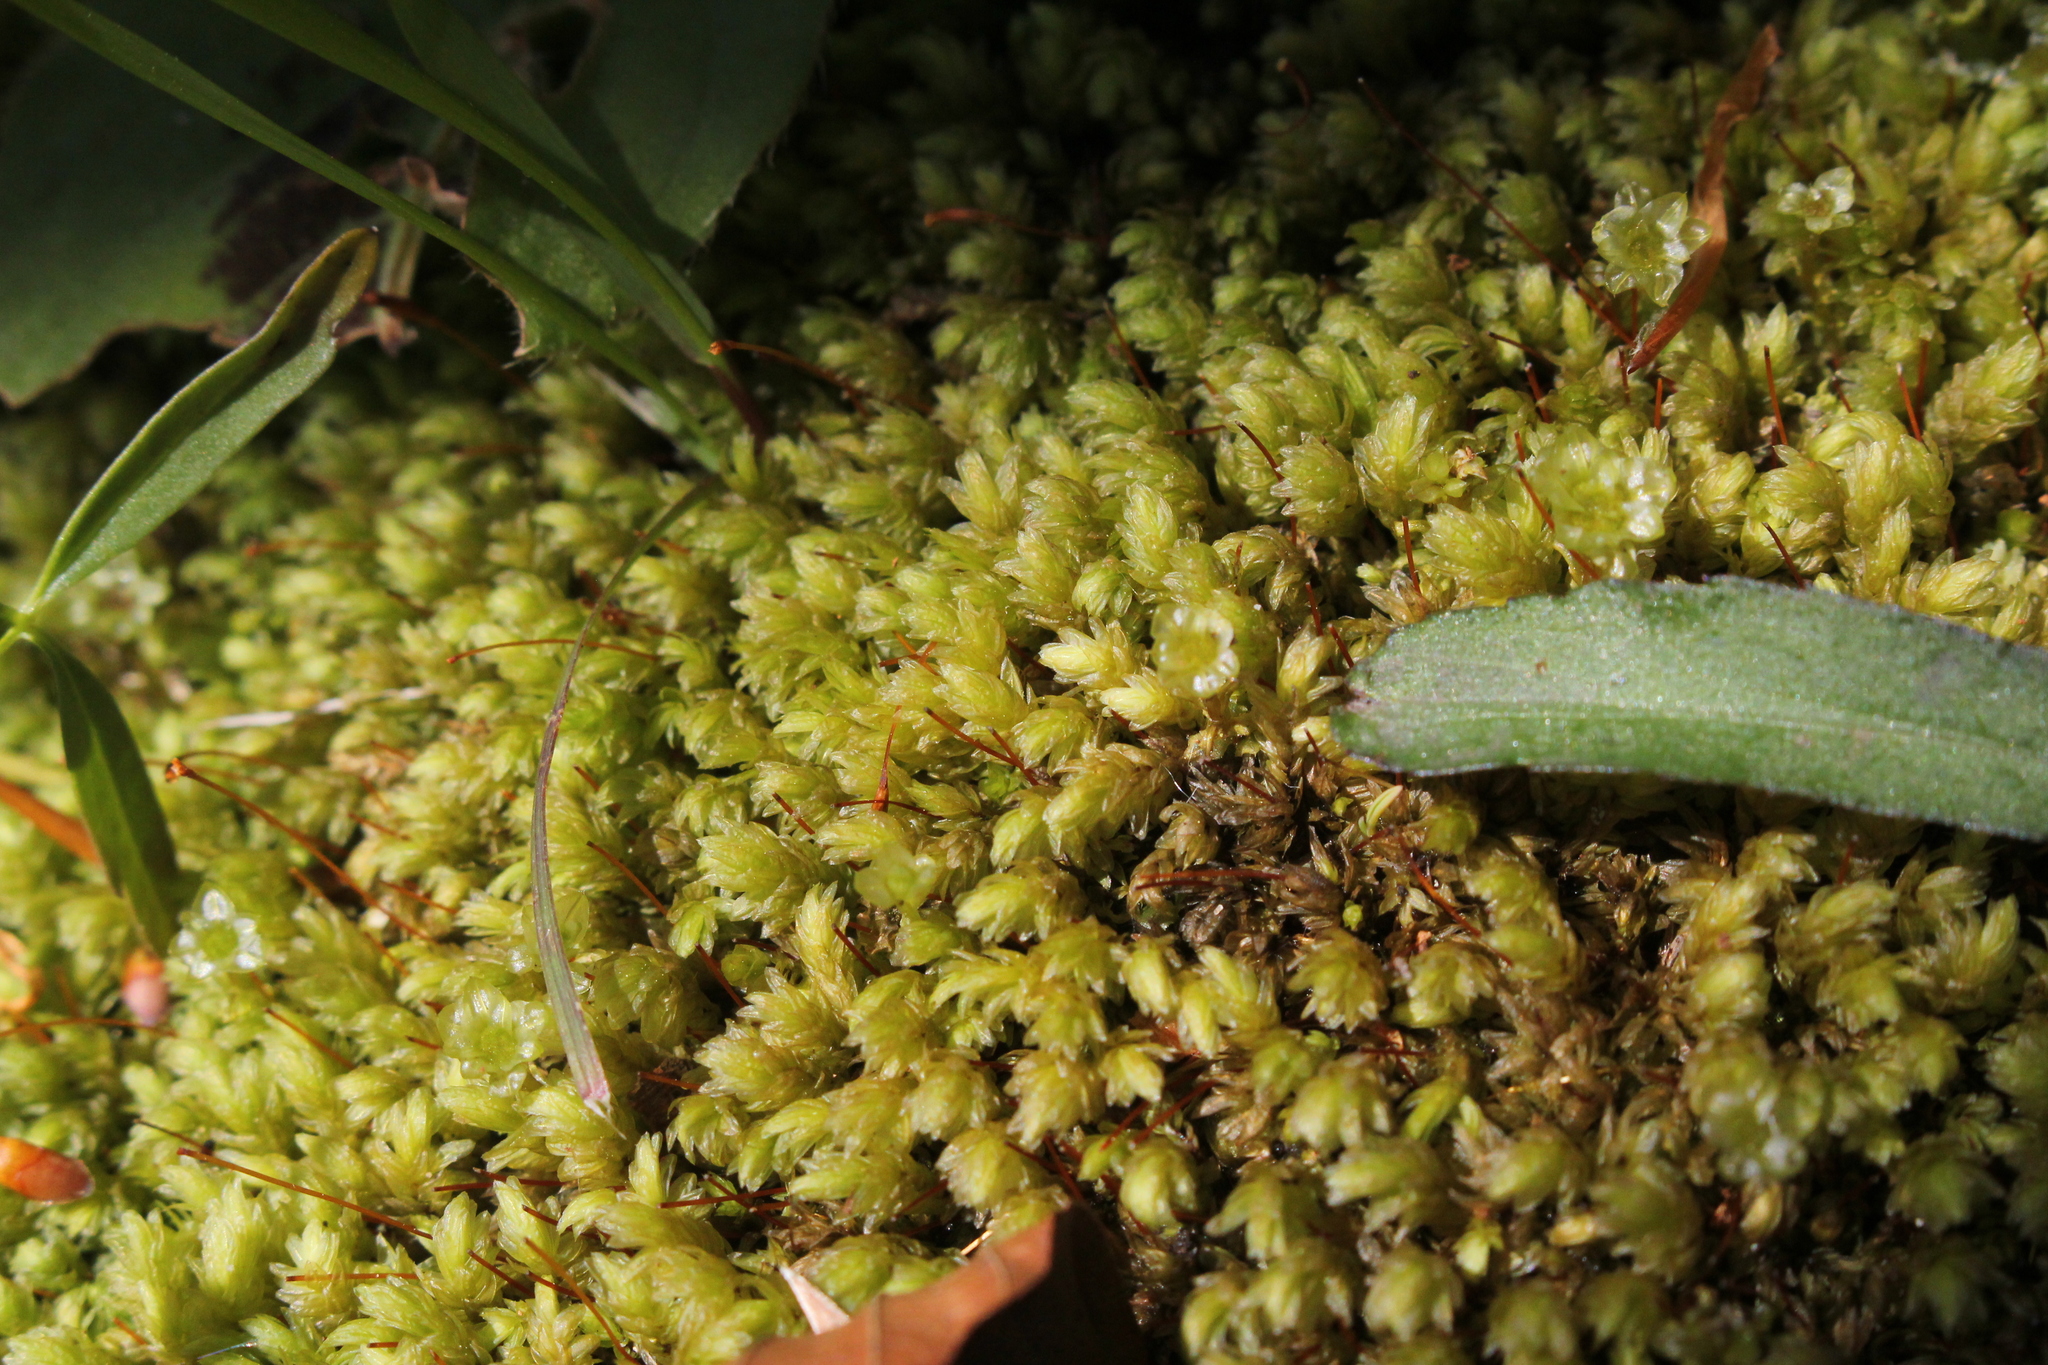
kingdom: Plantae
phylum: Bryophyta
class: Bryopsida
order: Aulacomniales
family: Aulacomniaceae
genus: Aulacomnium
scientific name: Aulacomnium heterostichum
